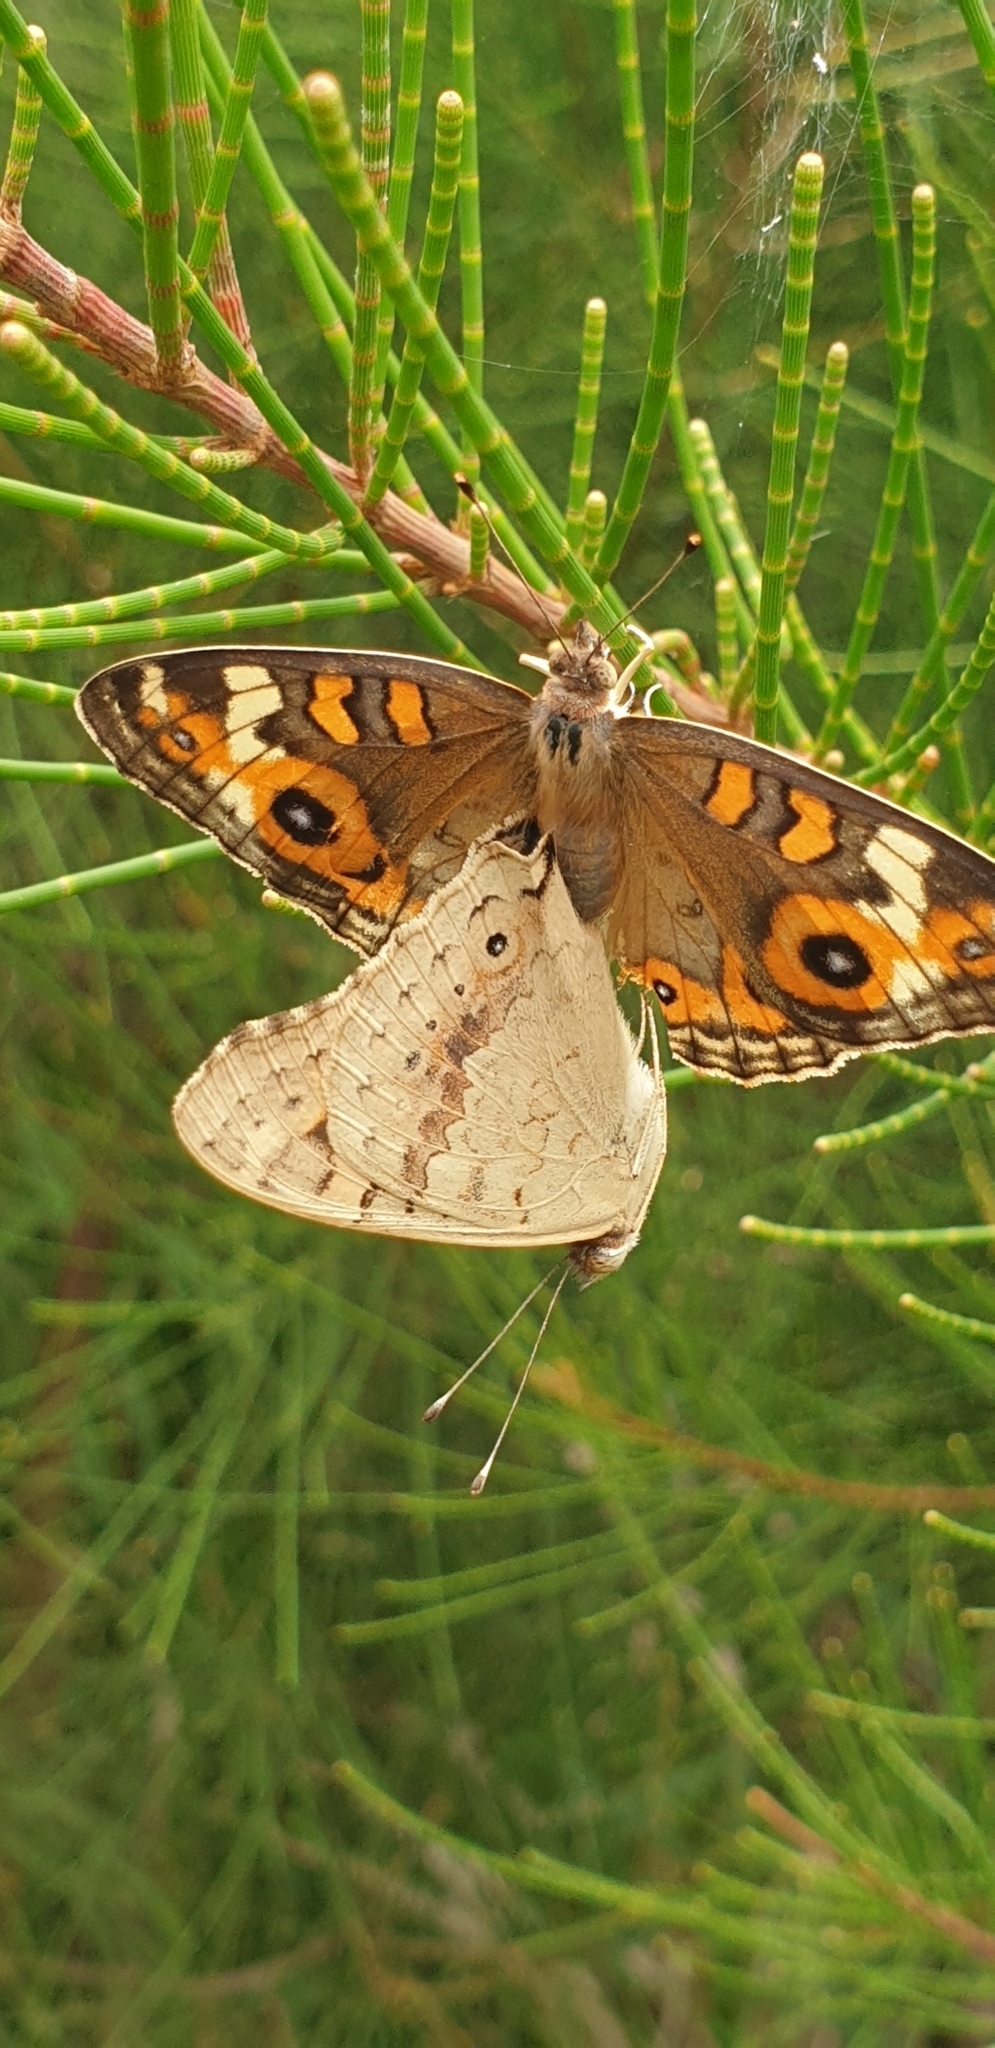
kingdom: Animalia
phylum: Arthropoda
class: Insecta
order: Lepidoptera
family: Nymphalidae
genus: Junonia
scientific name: Junonia villida
